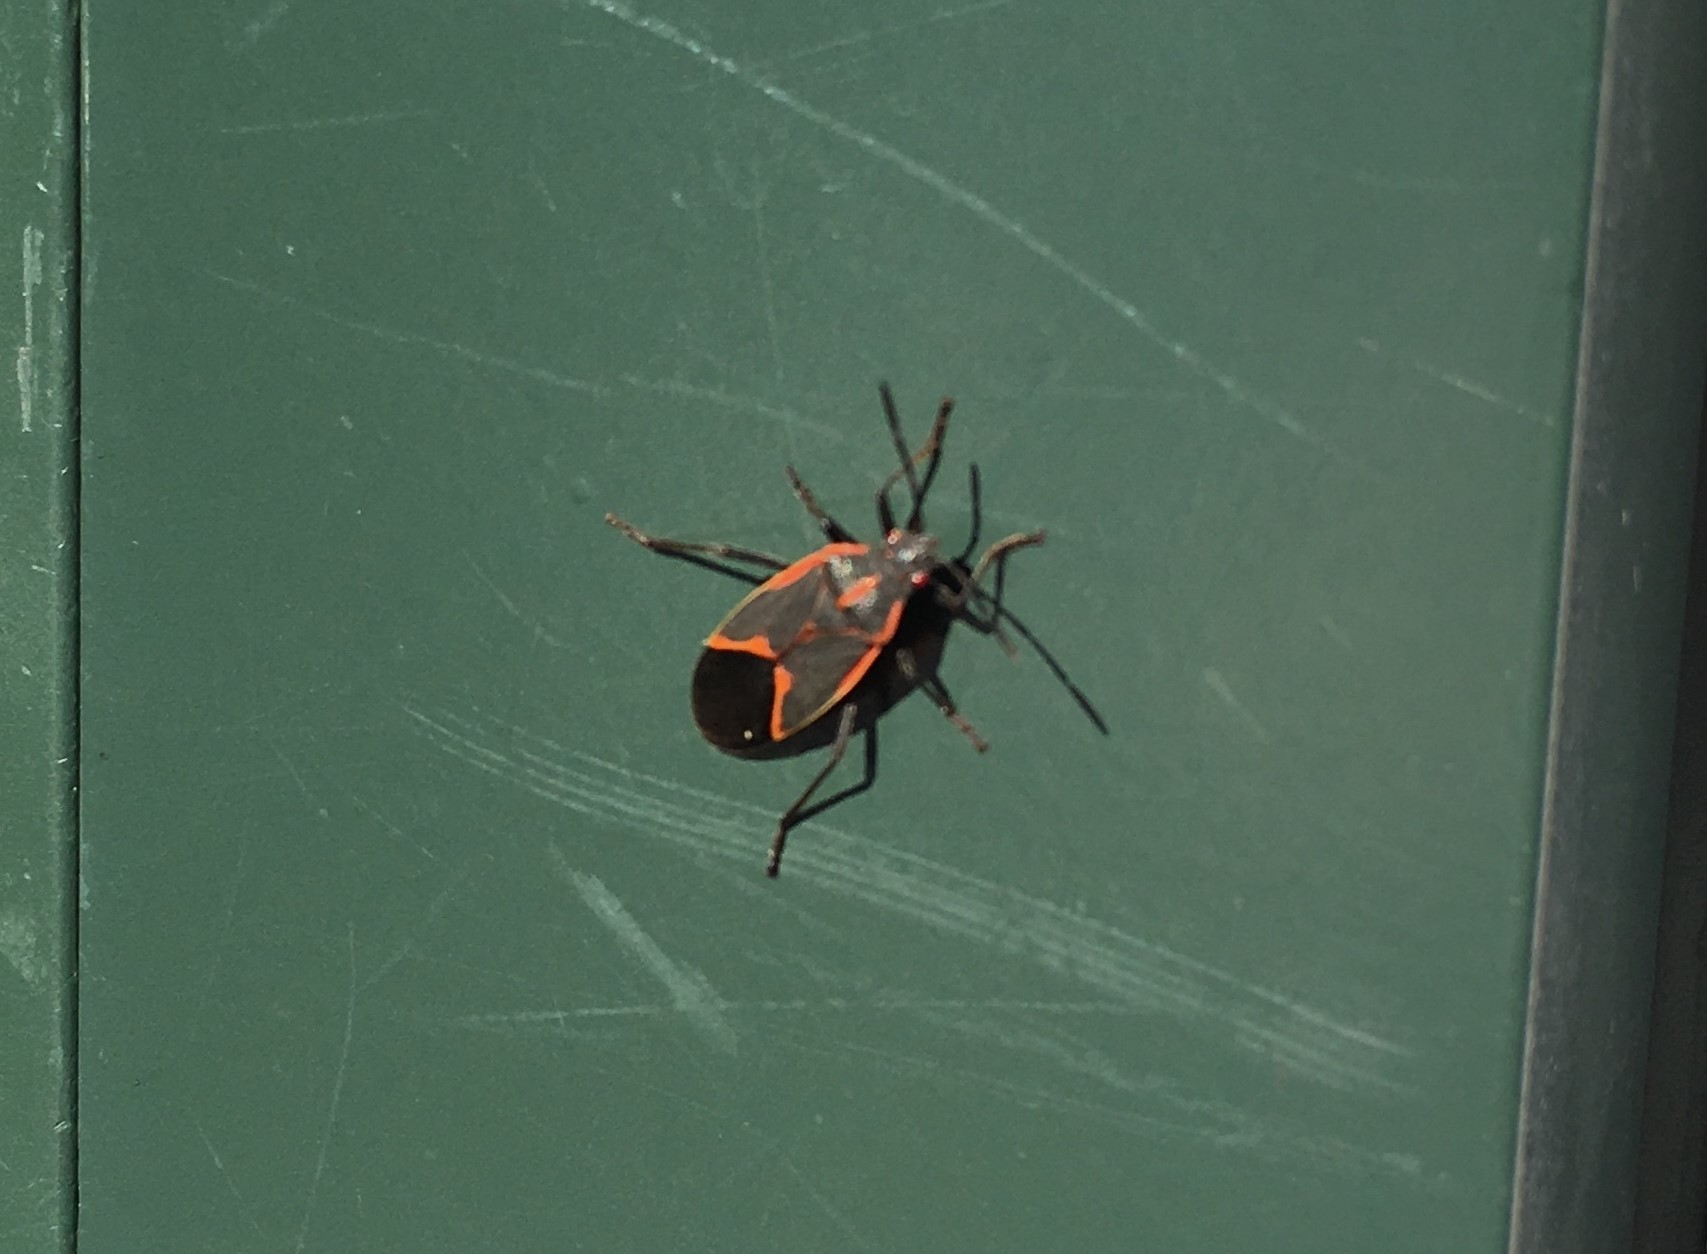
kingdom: Animalia
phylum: Arthropoda
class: Insecta
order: Hemiptera
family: Rhopalidae
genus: Boisea
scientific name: Boisea trivittata
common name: Boxelder bug
